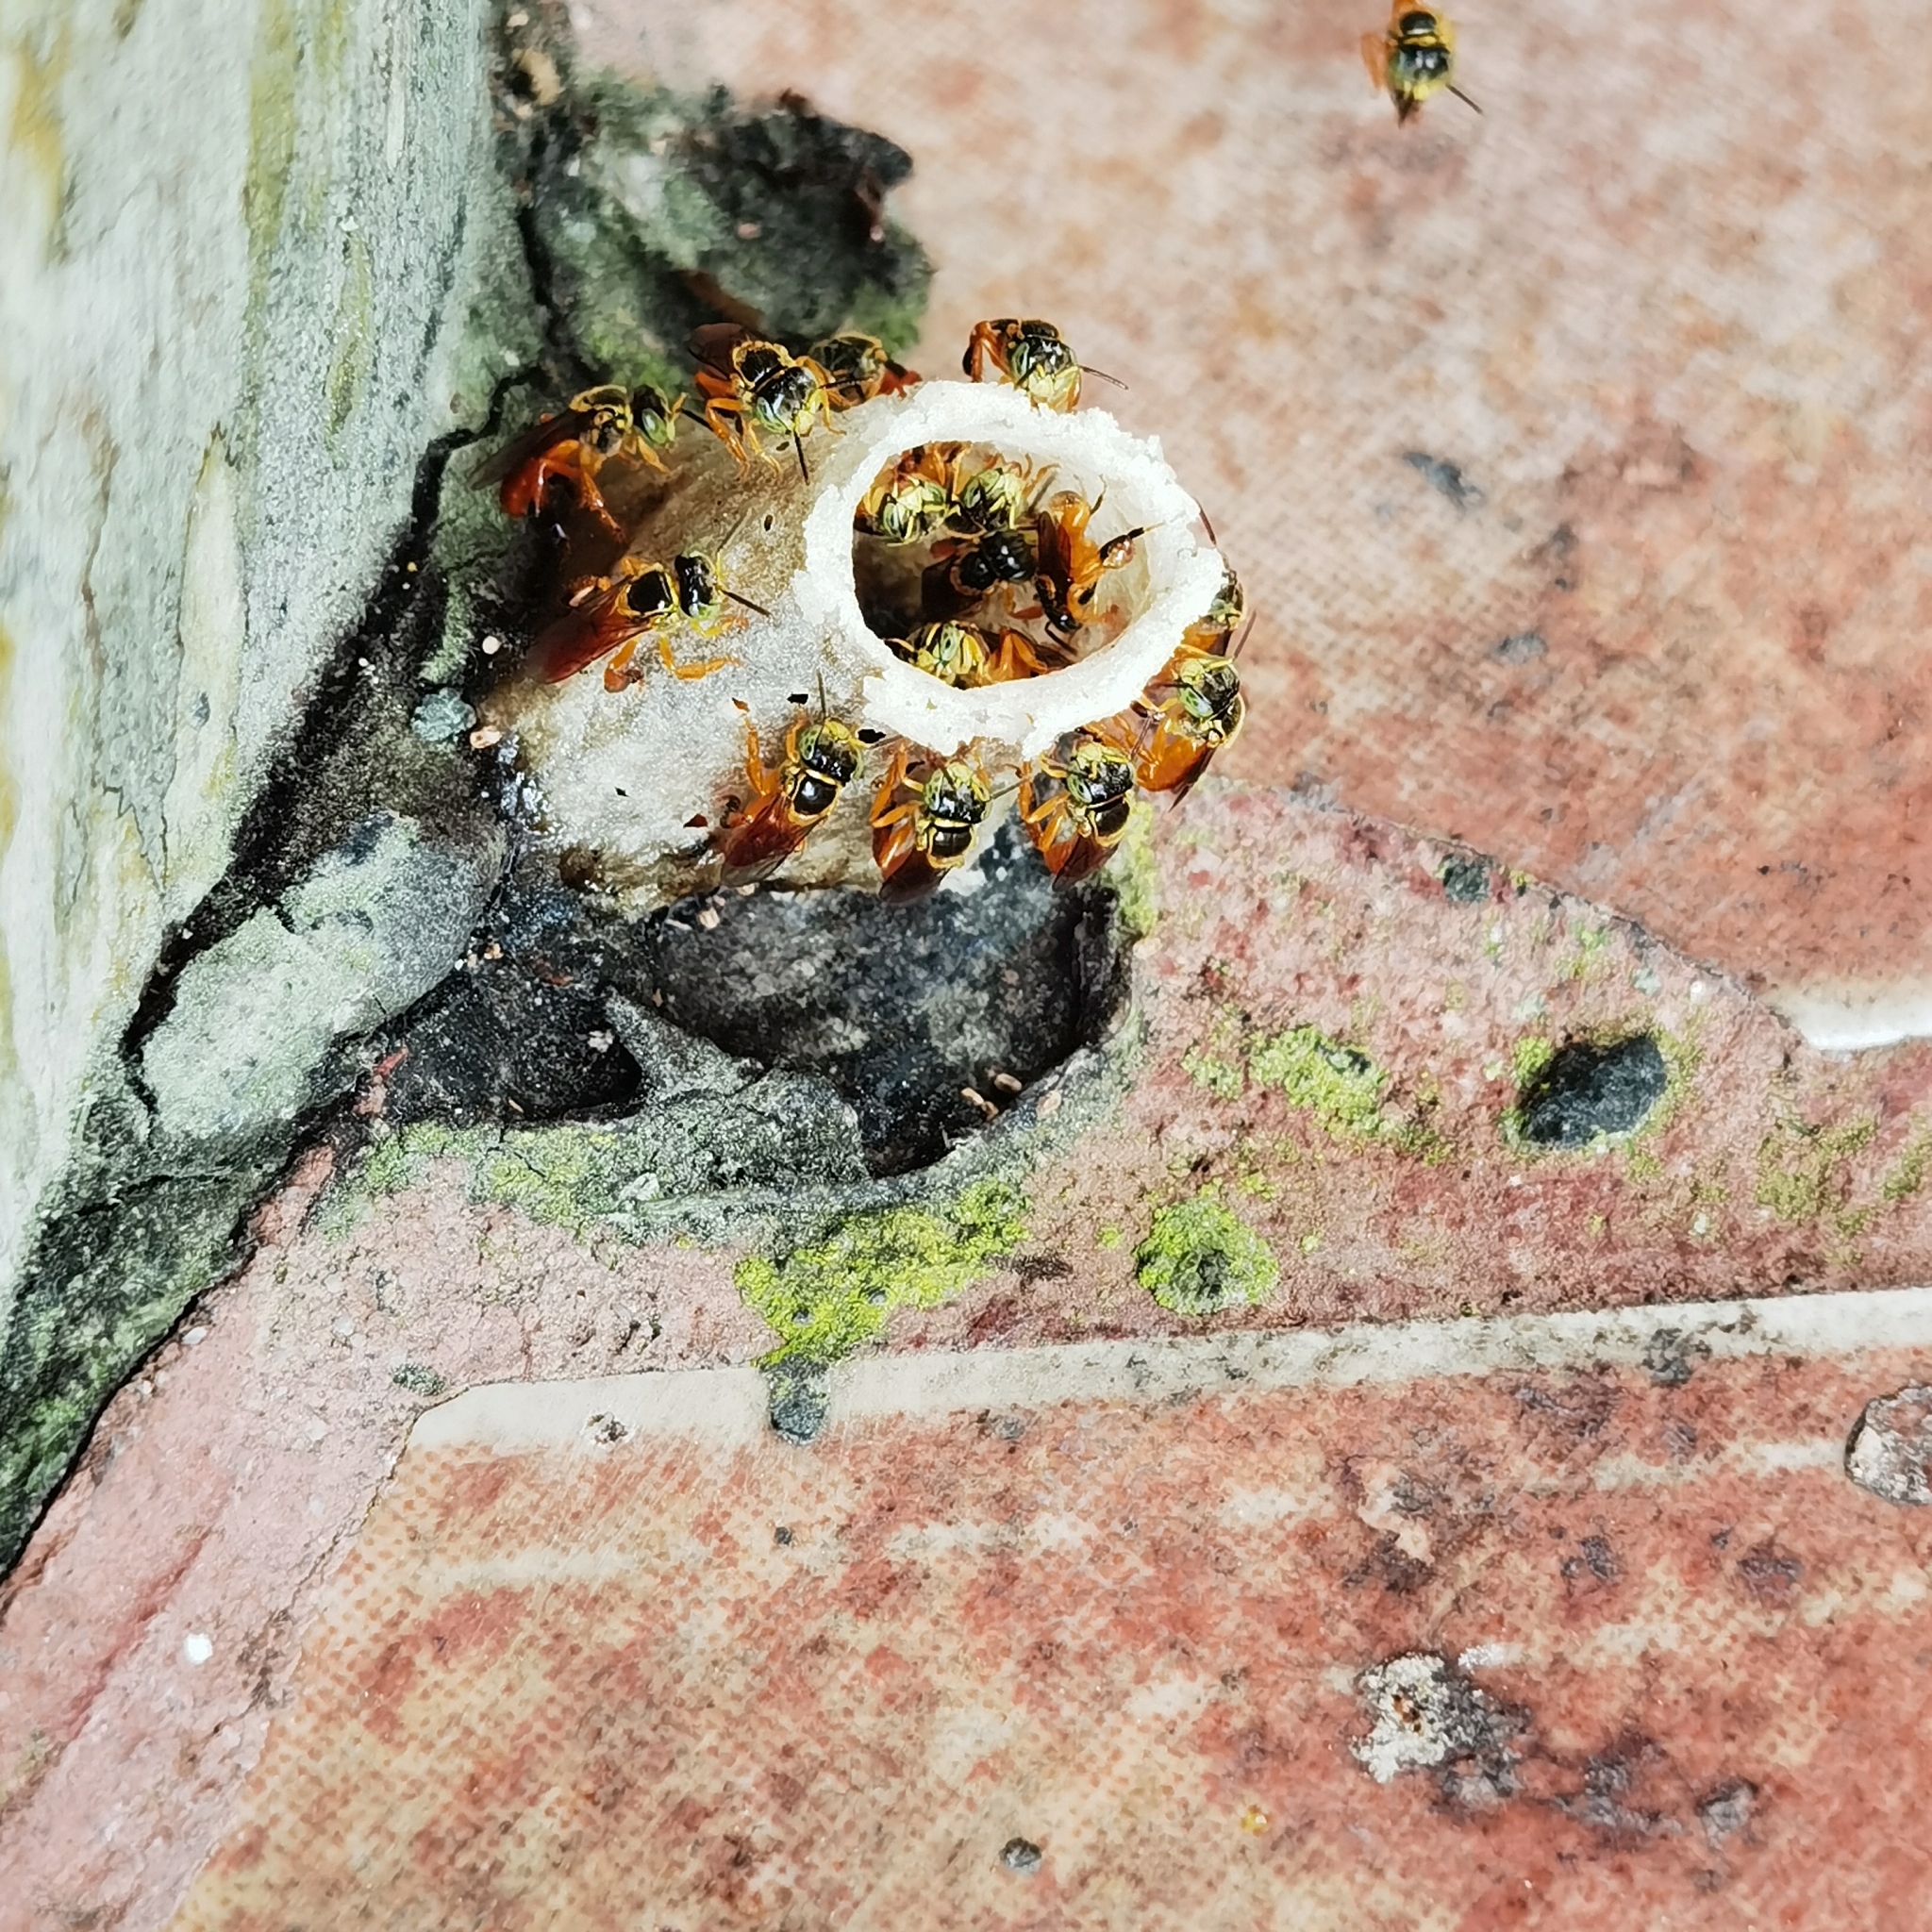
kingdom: Animalia
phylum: Arthropoda
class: Insecta
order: Hymenoptera
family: Apidae
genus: Tetragonisca
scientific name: Tetragonisca angustula
